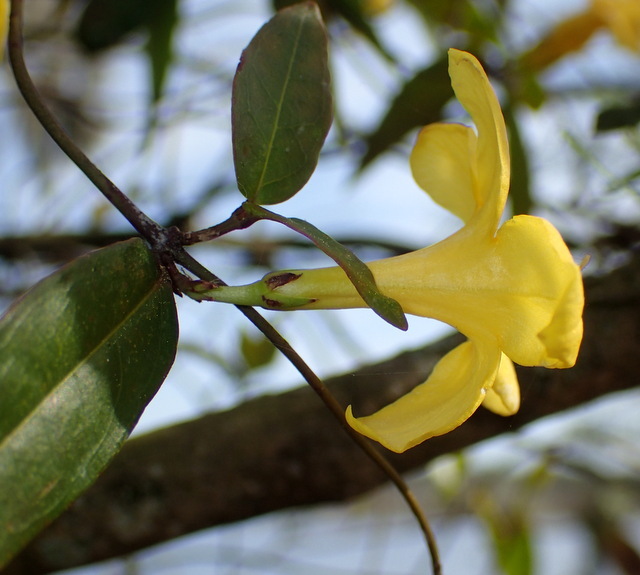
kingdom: Plantae
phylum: Tracheophyta
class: Magnoliopsida
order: Gentianales
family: Gelsemiaceae
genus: Gelsemium
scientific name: Gelsemium sempervirens
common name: Carolina-jasmine
